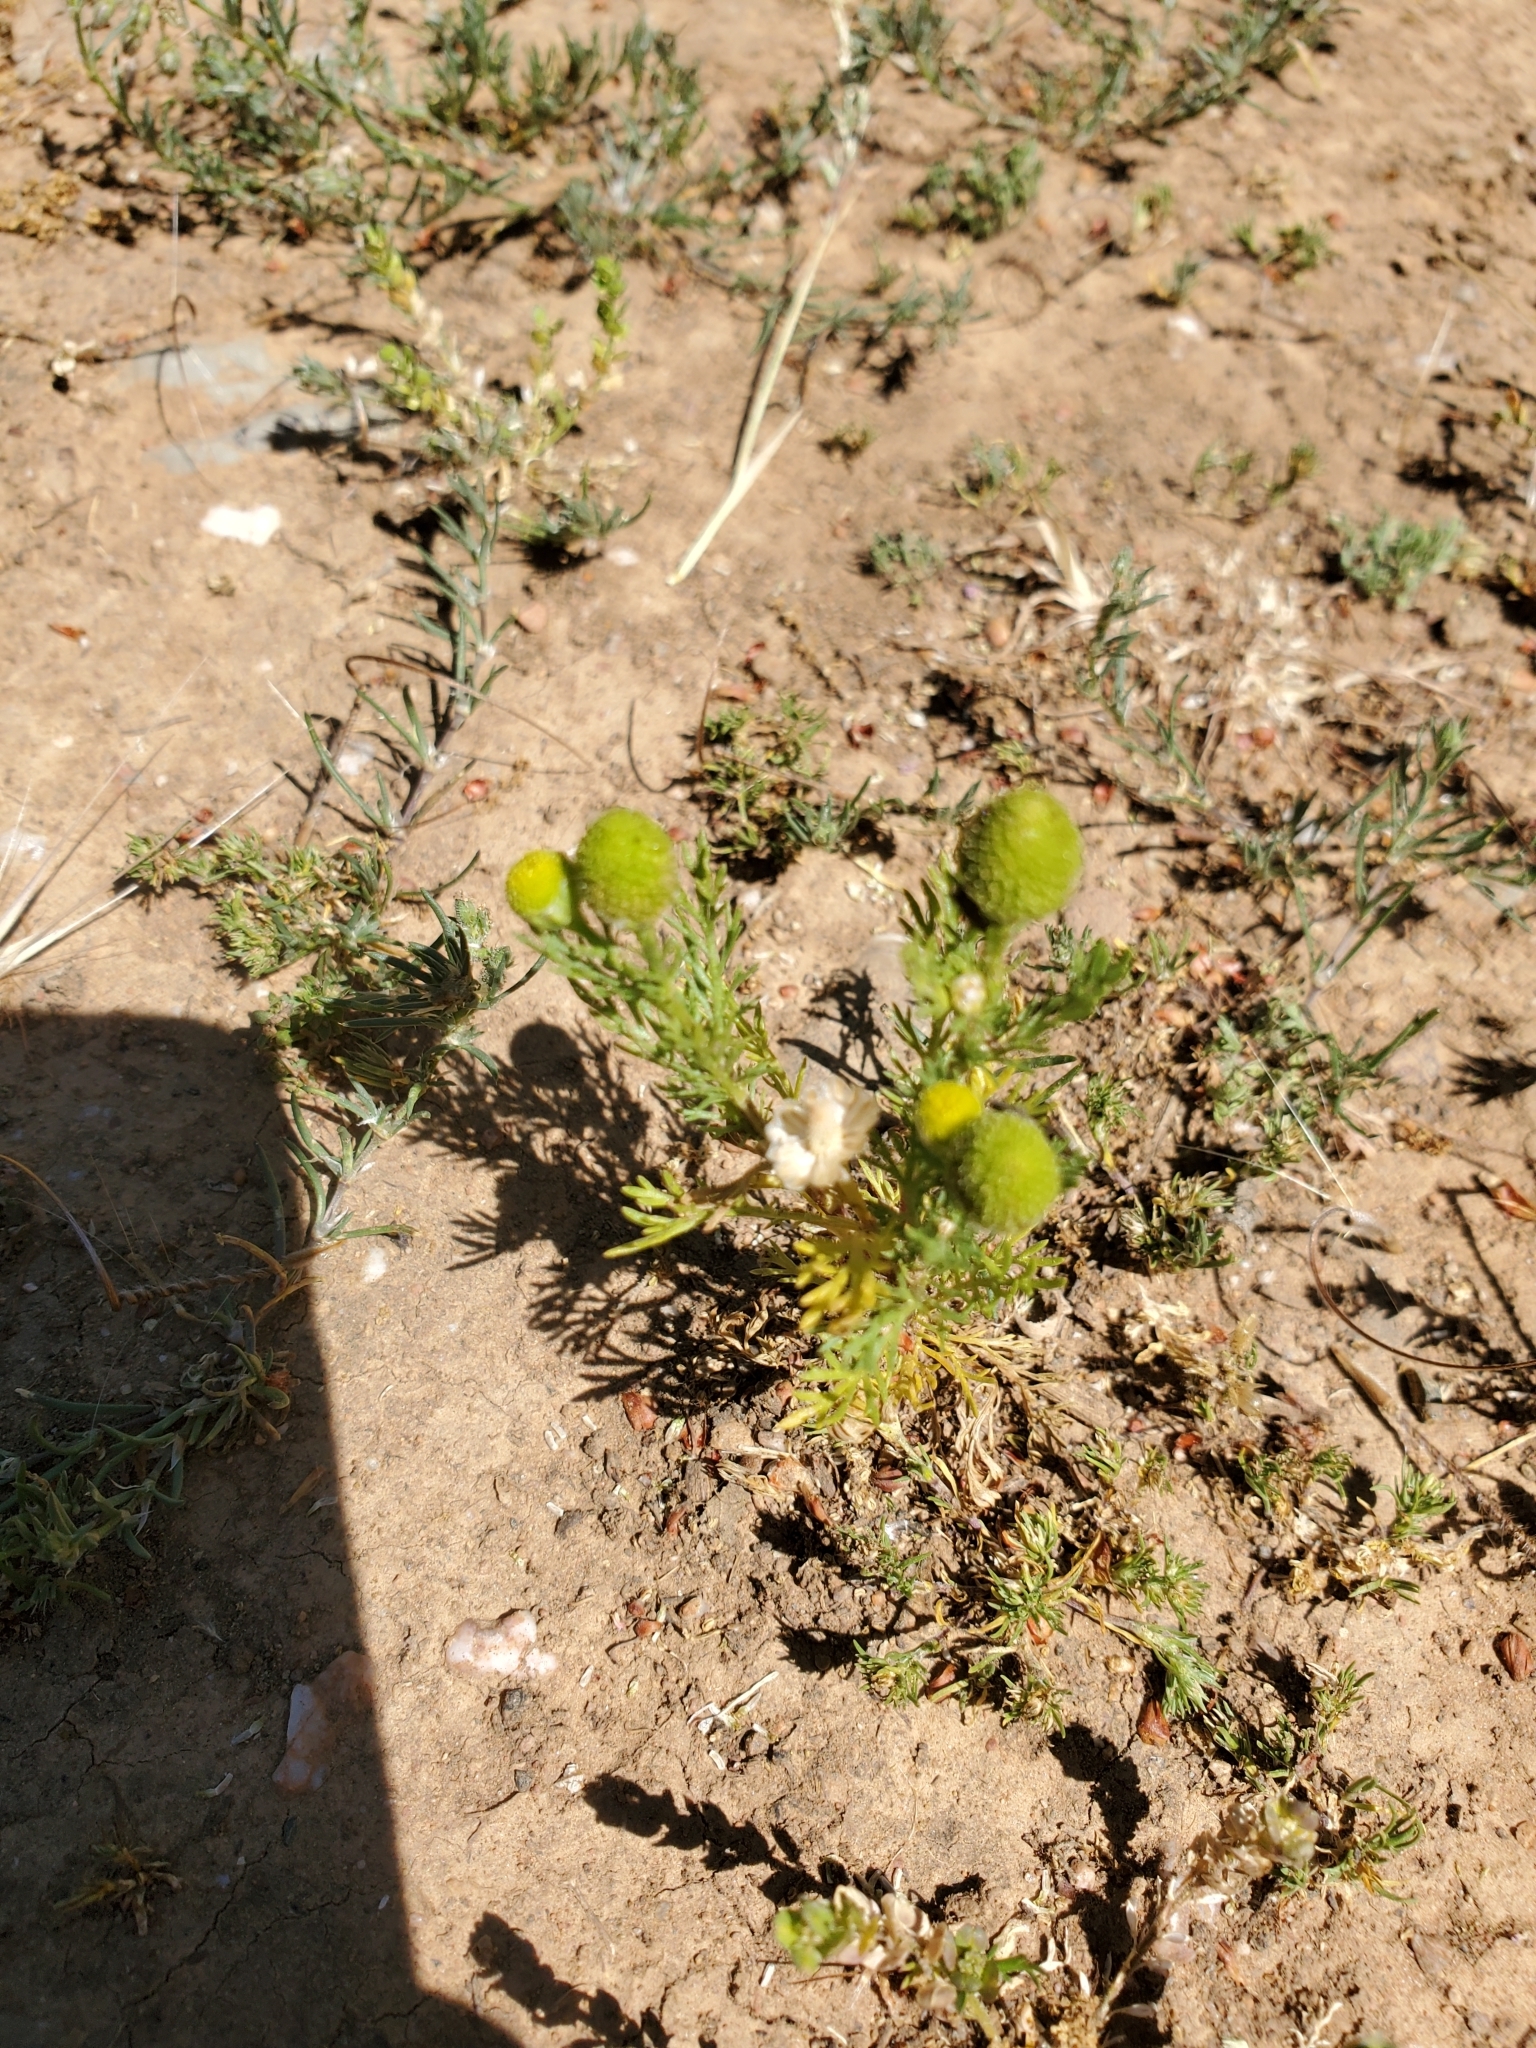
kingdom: Plantae
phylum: Tracheophyta
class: Magnoliopsida
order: Asterales
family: Asteraceae
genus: Matricaria
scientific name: Matricaria discoidea
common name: Disc mayweed
